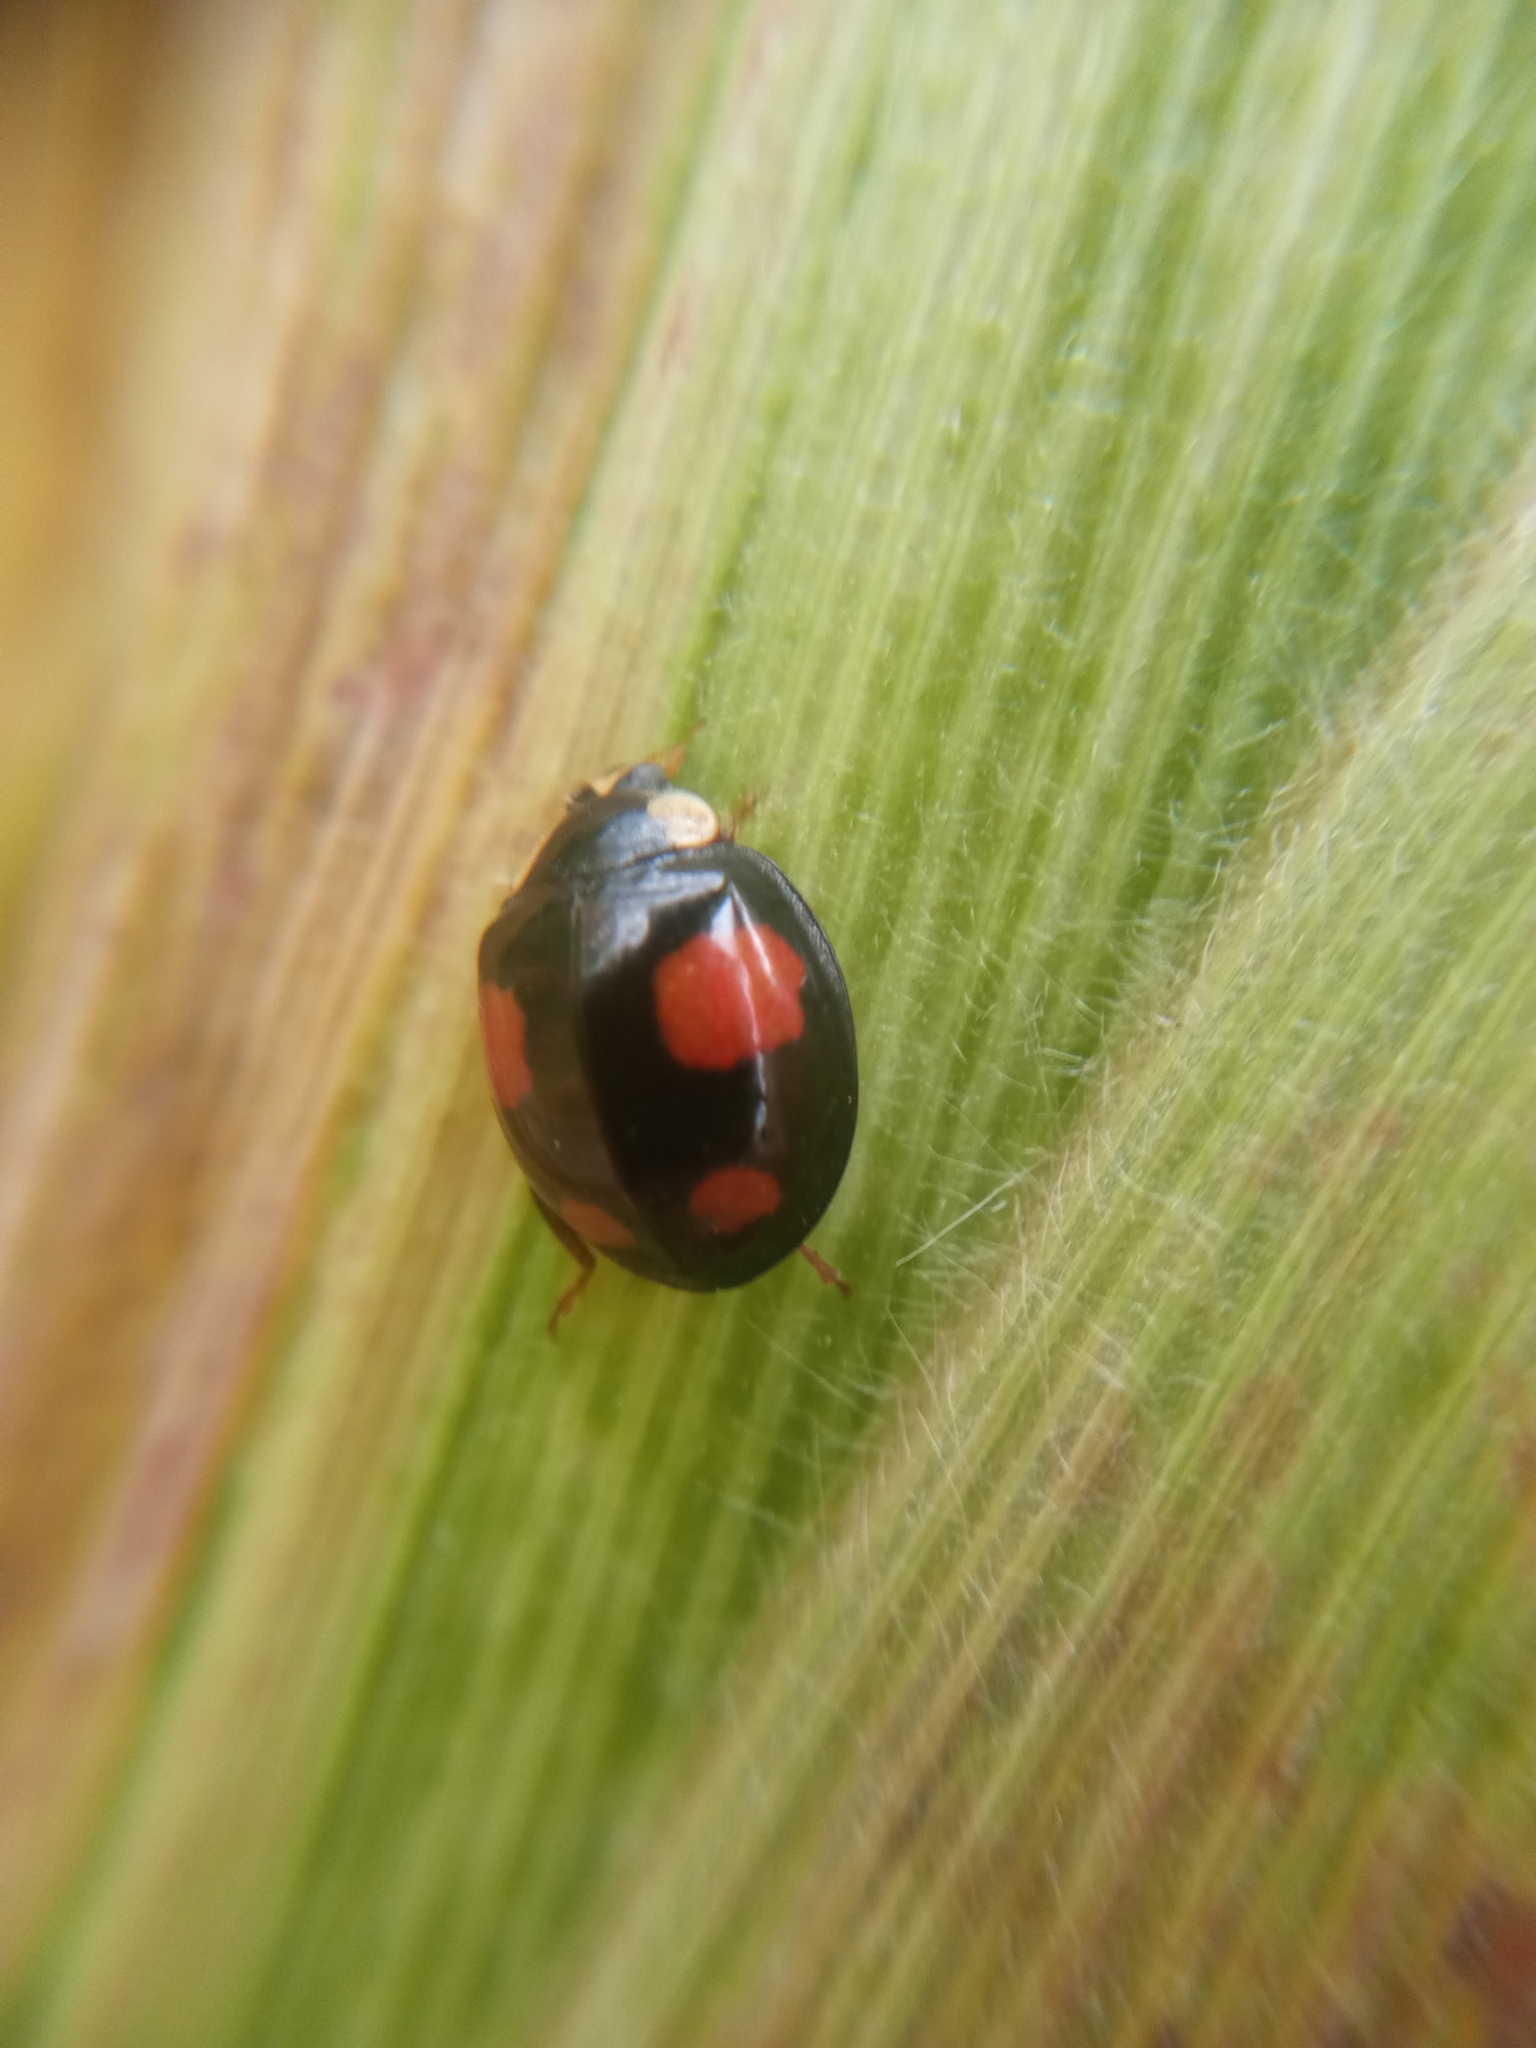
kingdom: Animalia
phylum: Arthropoda
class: Insecta
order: Coleoptera
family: Coccinellidae
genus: Harmonia
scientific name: Harmonia axyridis
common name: Harlequin ladybird
